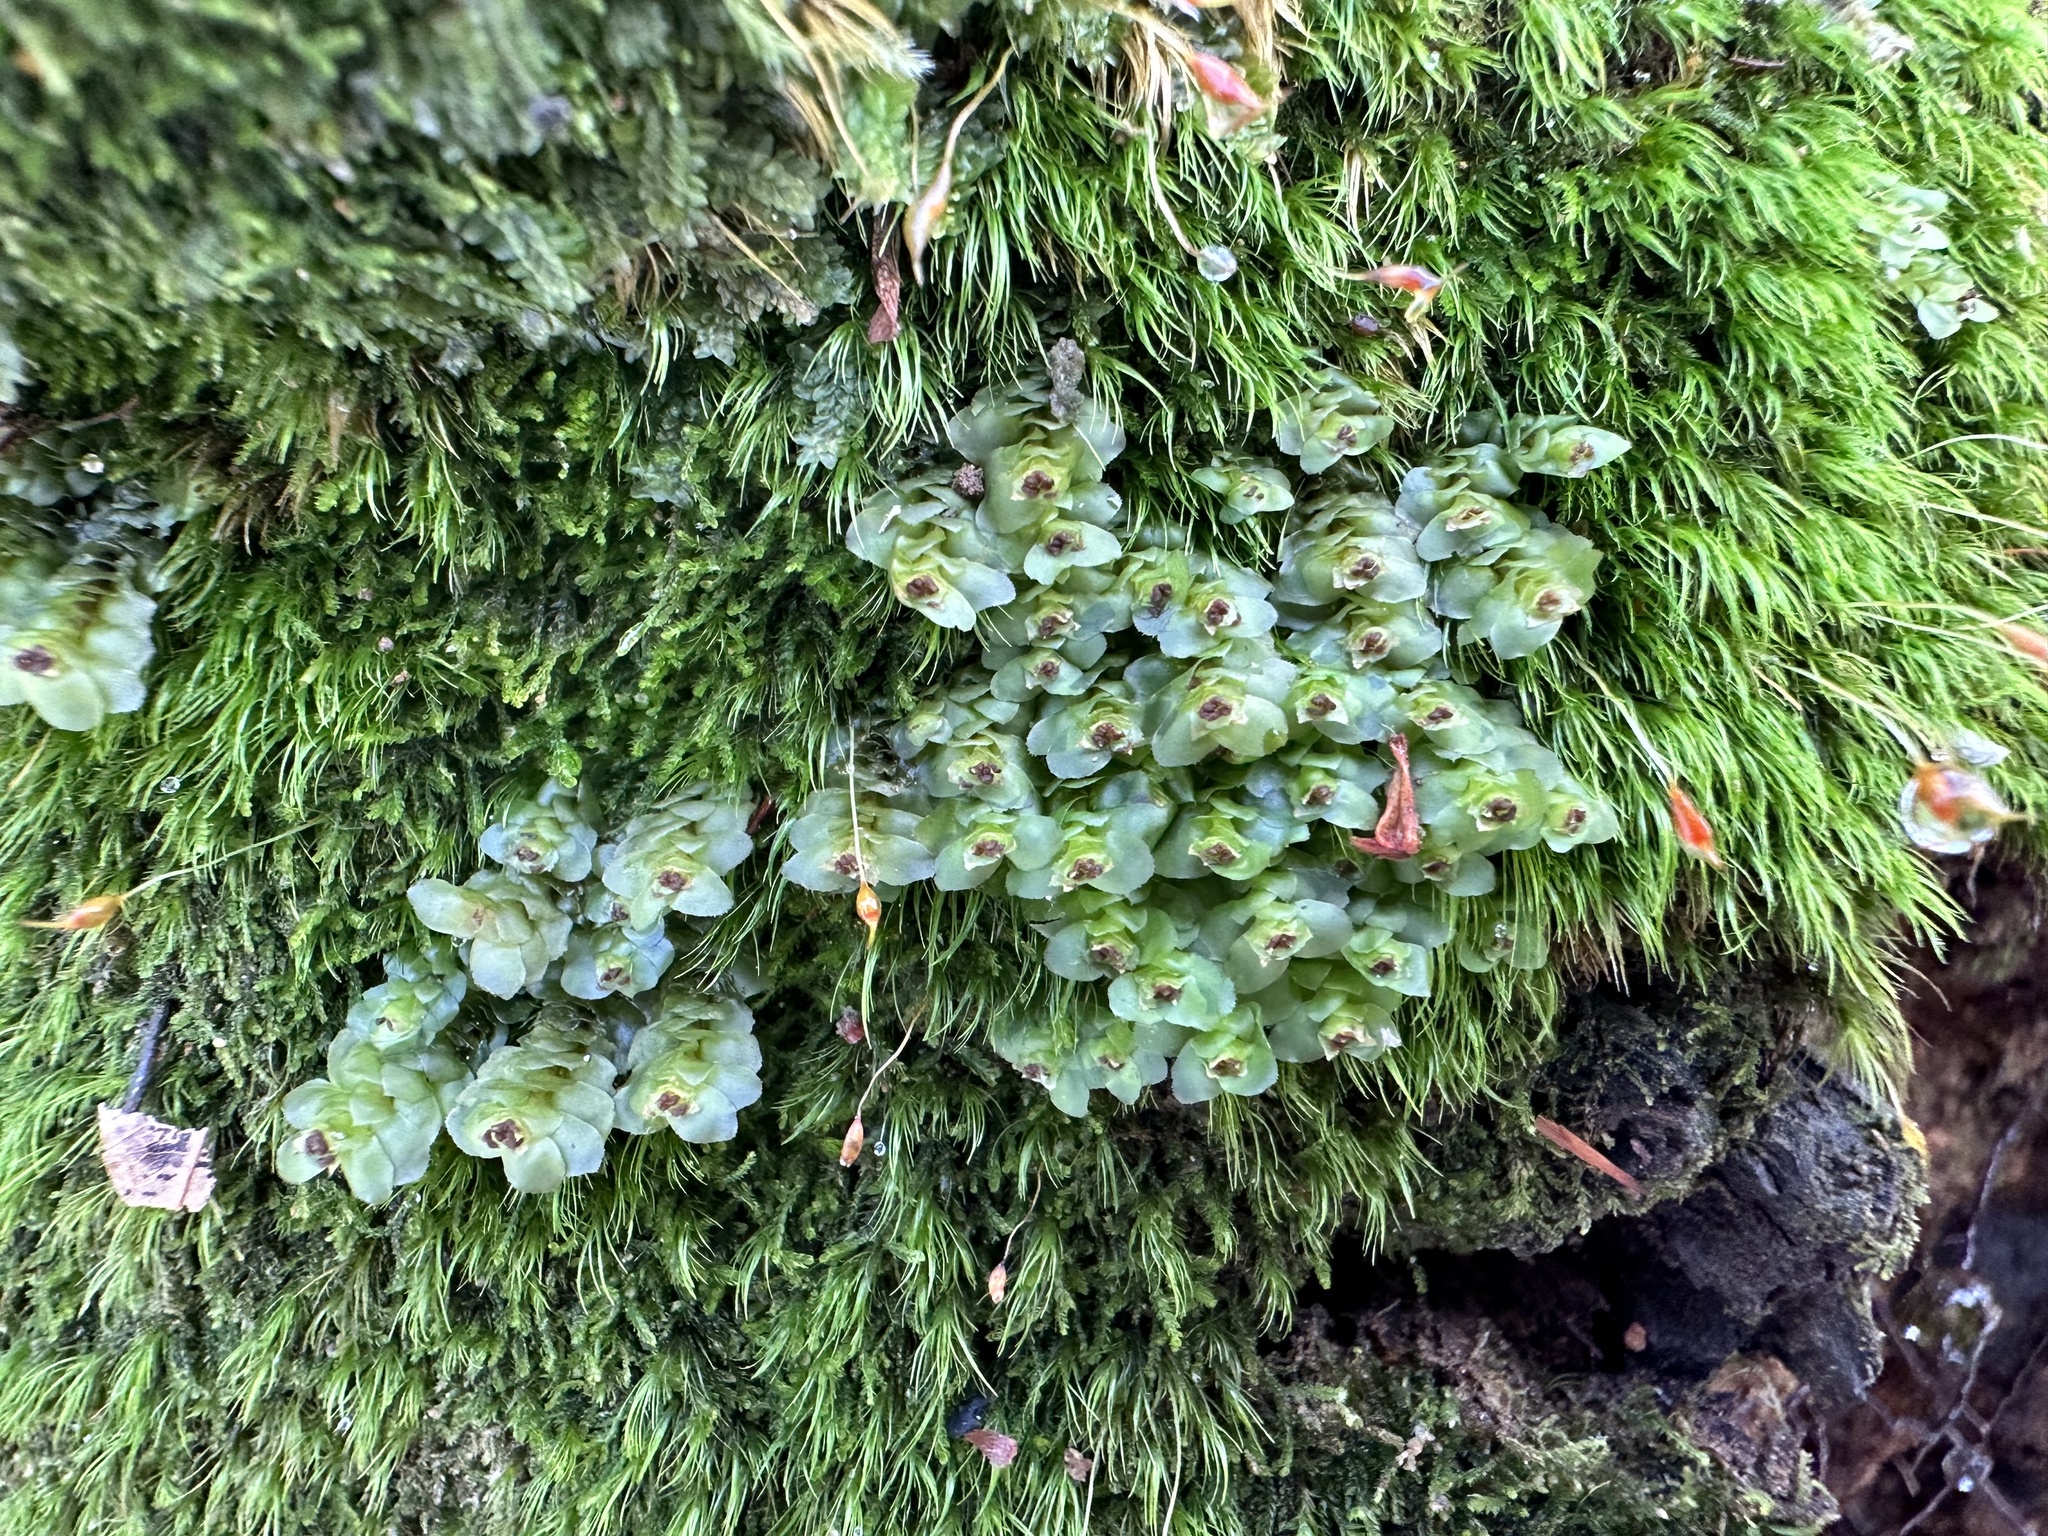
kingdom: Plantae
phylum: Marchantiophyta
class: Jungermanniopsida
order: Jungermanniales
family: Scapaniaceae
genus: Scapania
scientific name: Scapania nemorea
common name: Grove earwort
